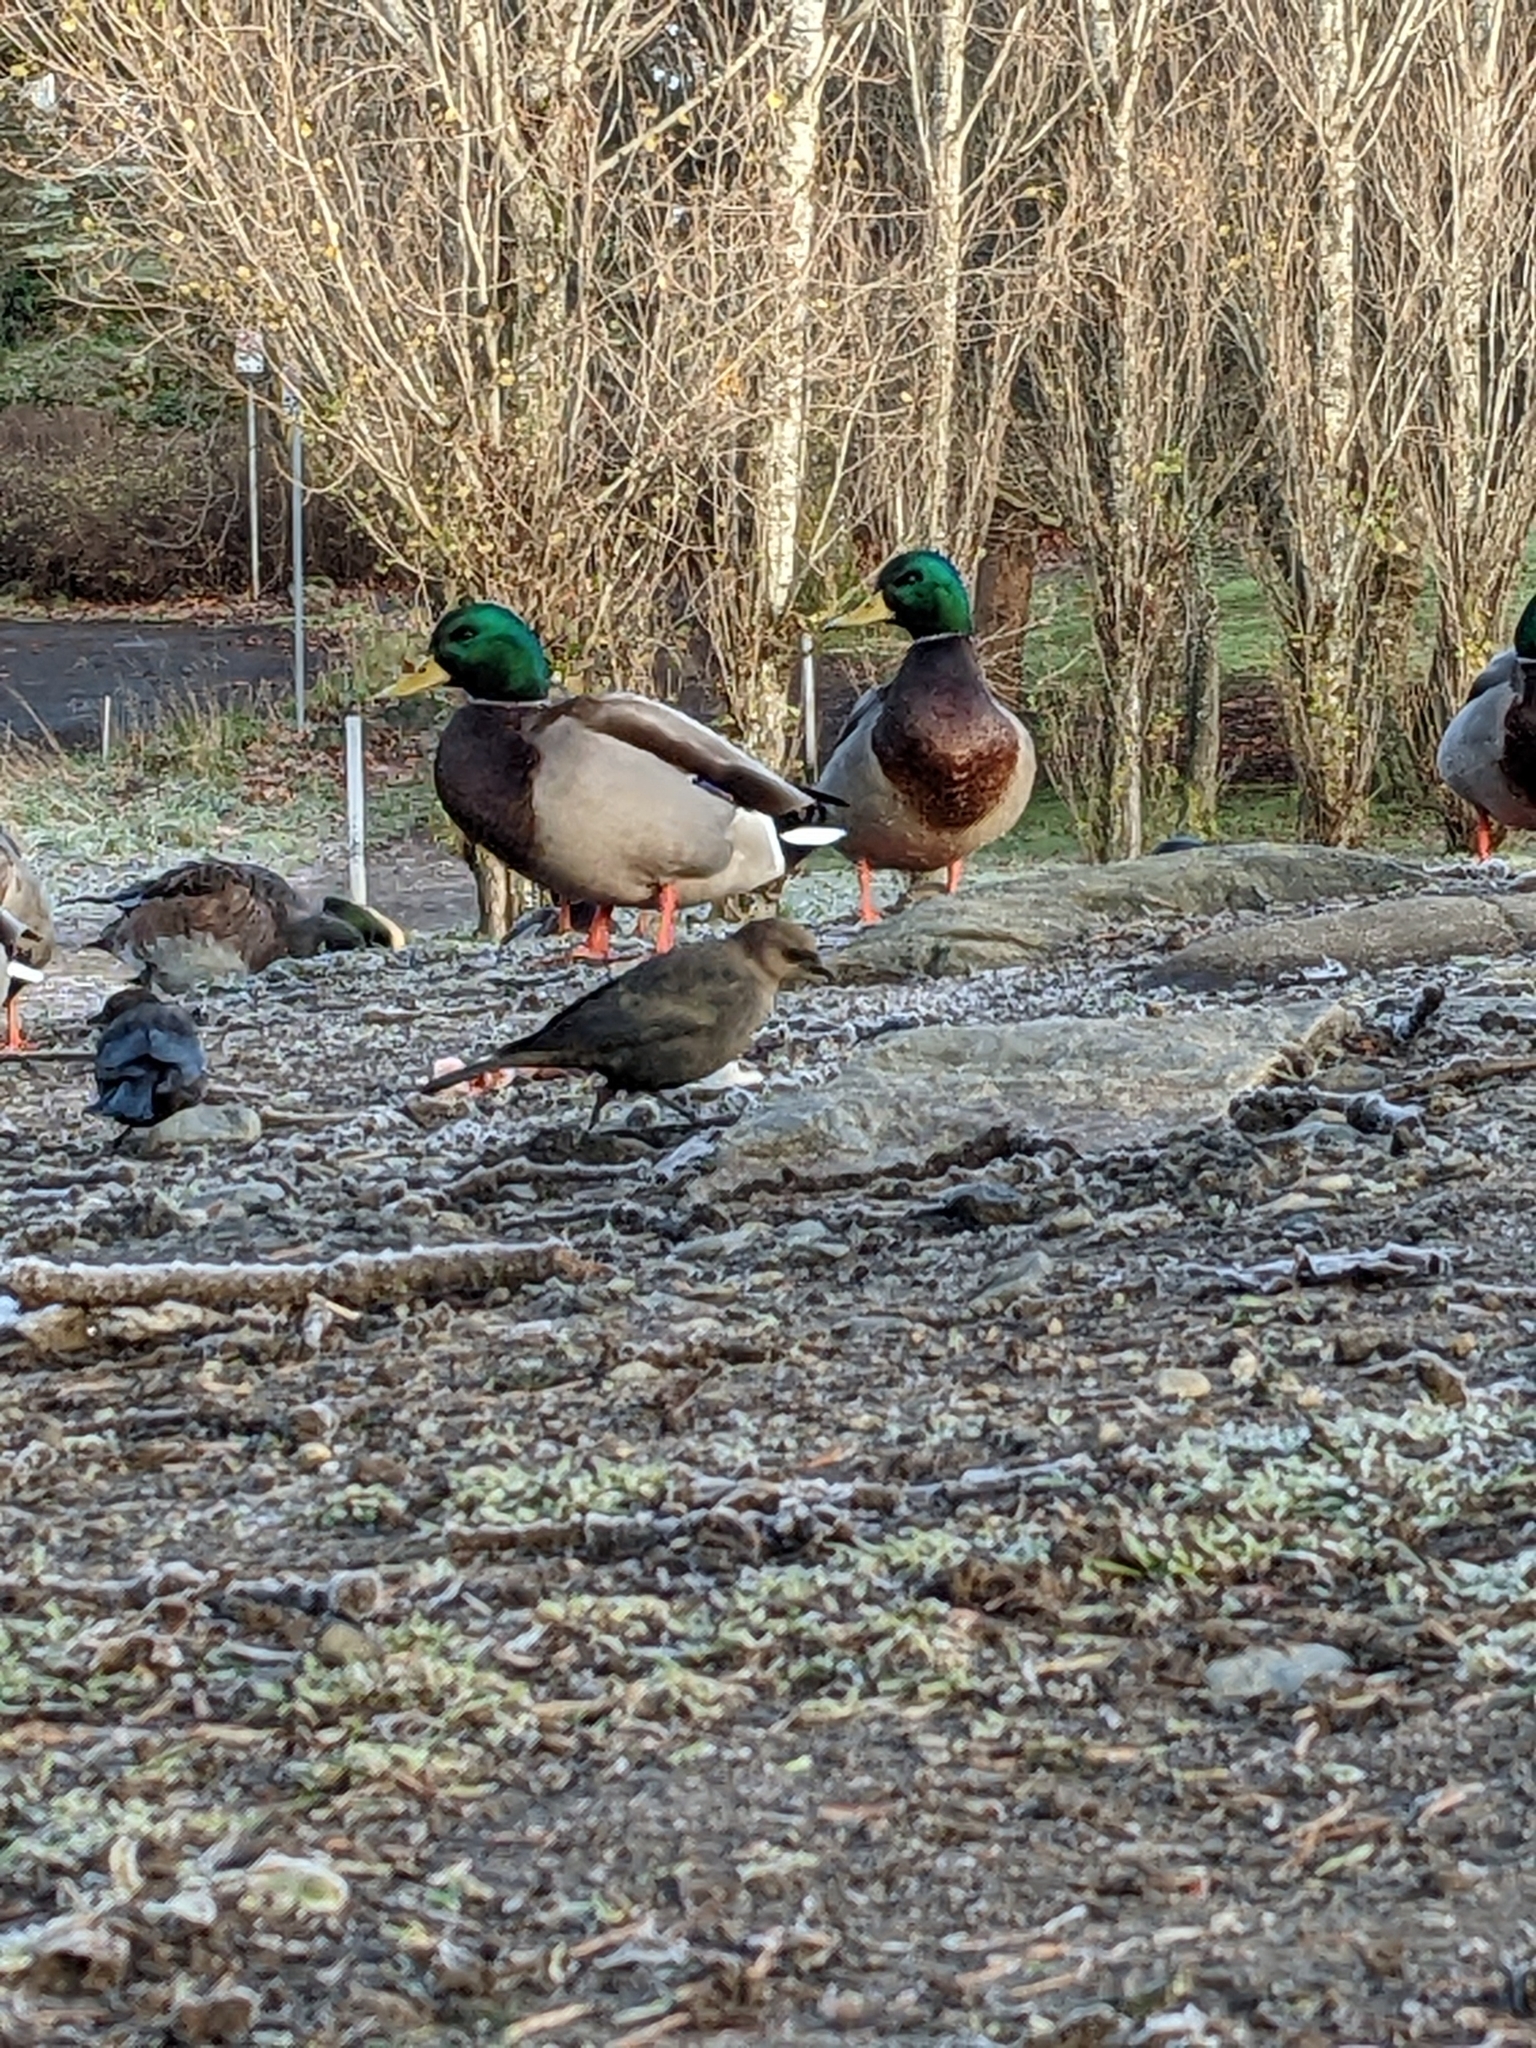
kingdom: Animalia
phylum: Chordata
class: Aves
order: Passeriformes
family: Icteridae
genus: Euphagus
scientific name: Euphagus cyanocephalus
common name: Brewer's blackbird
